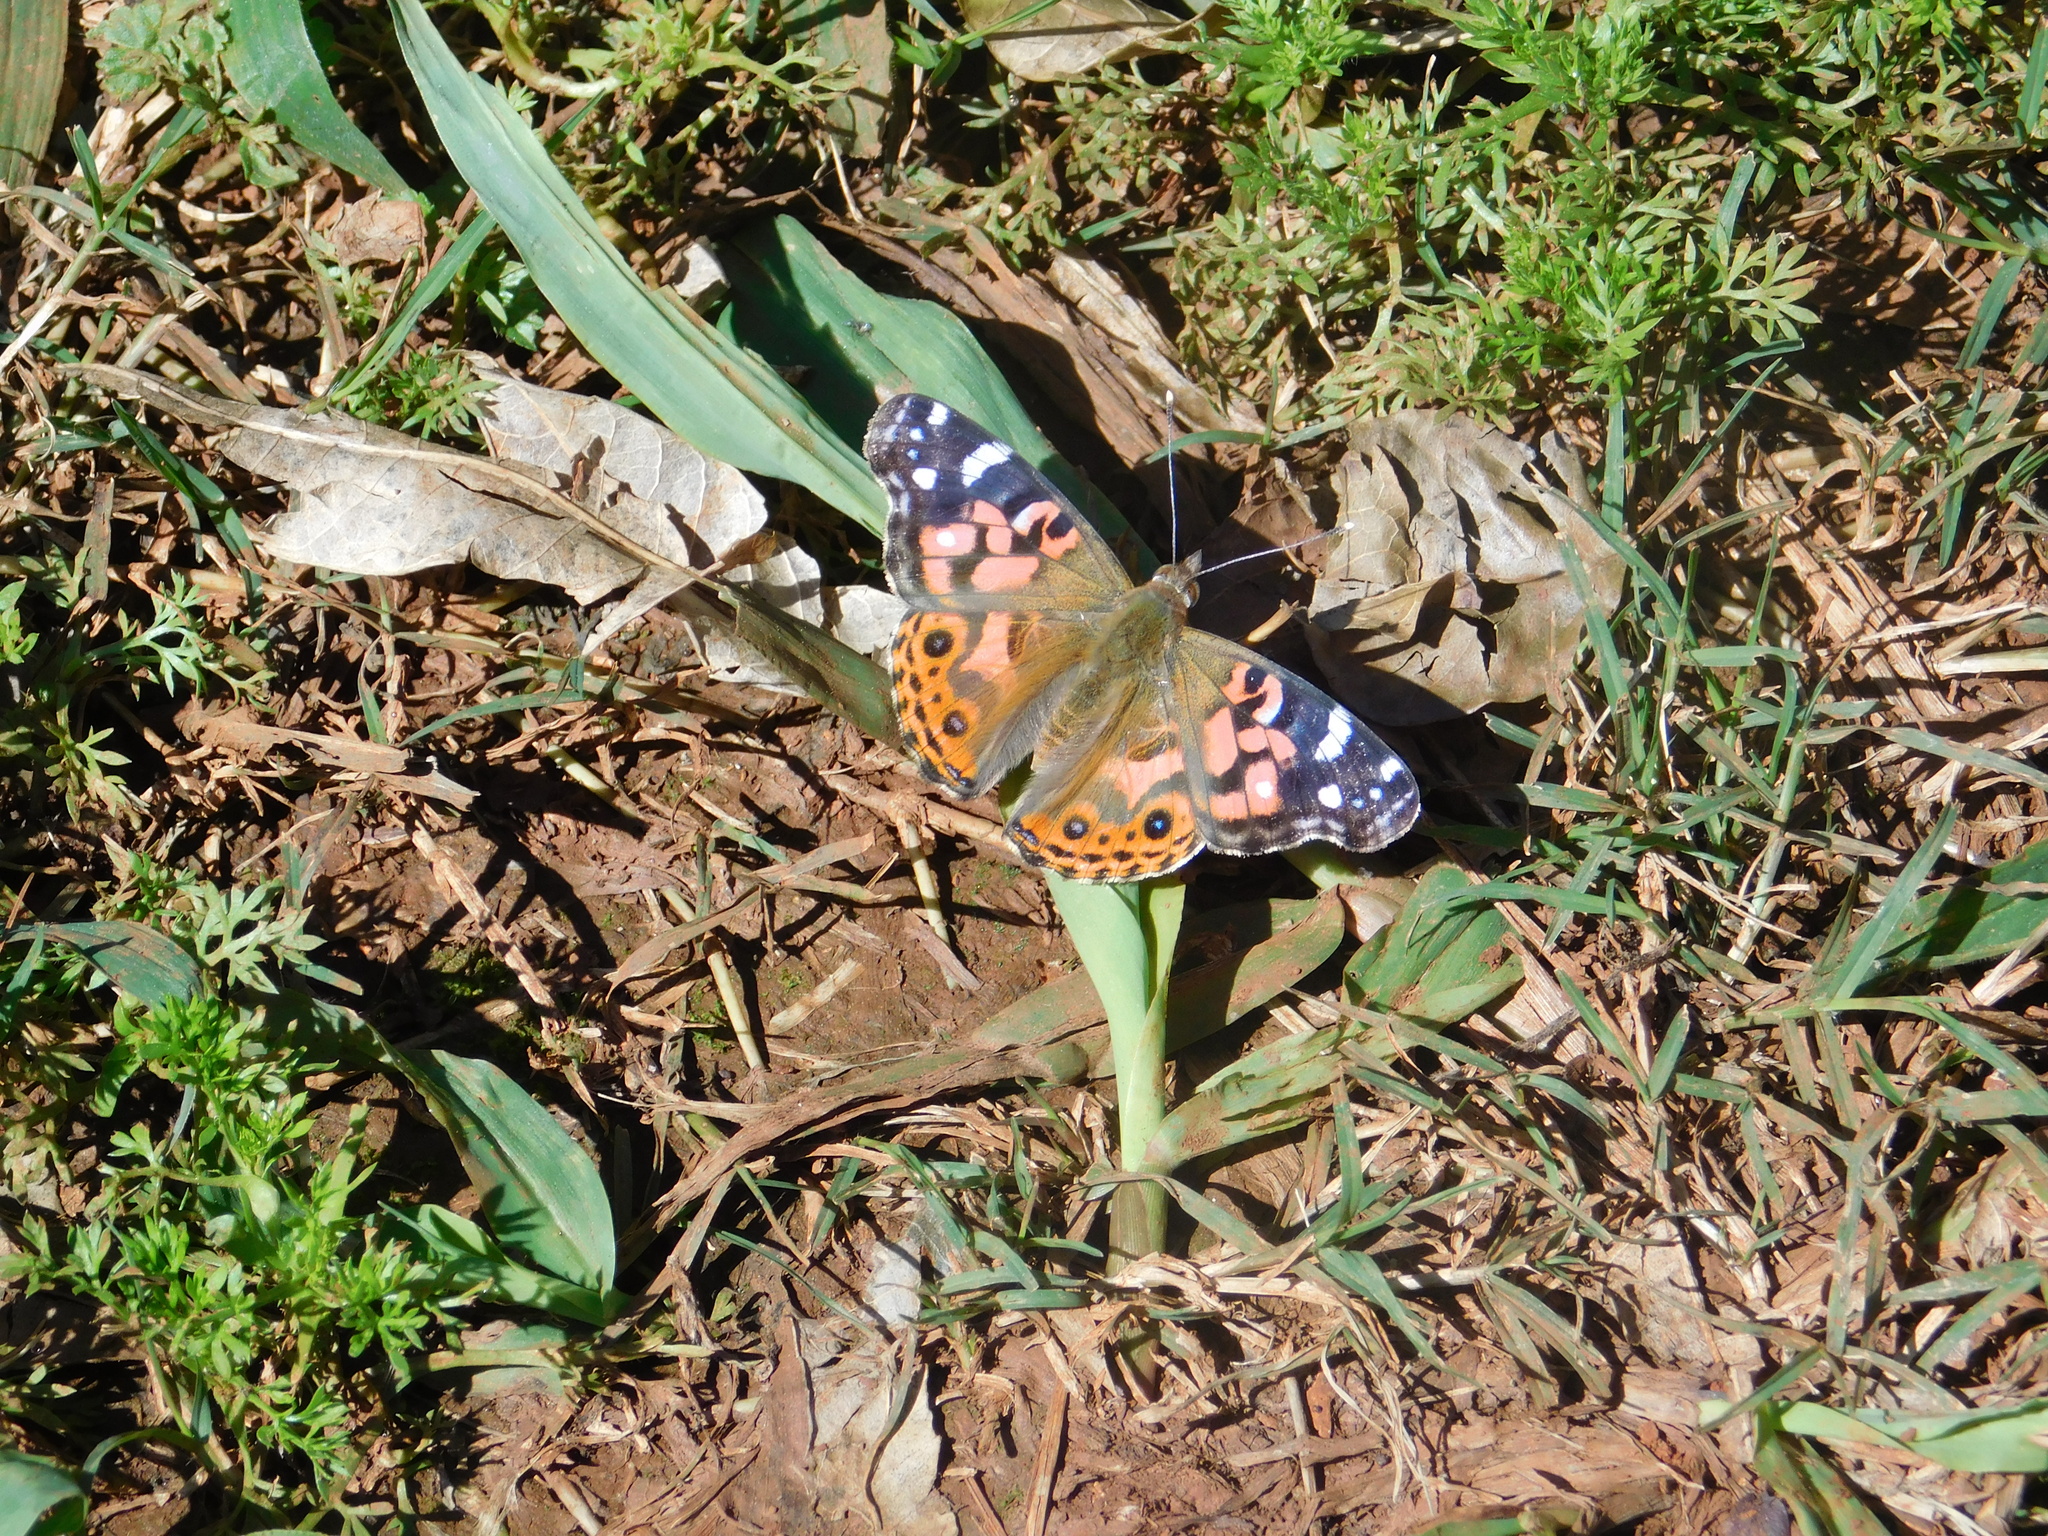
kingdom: Animalia
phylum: Arthropoda
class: Insecta
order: Lepidoptera
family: Nymphalidae
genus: Vanessa
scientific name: Vanessa braziliensis
